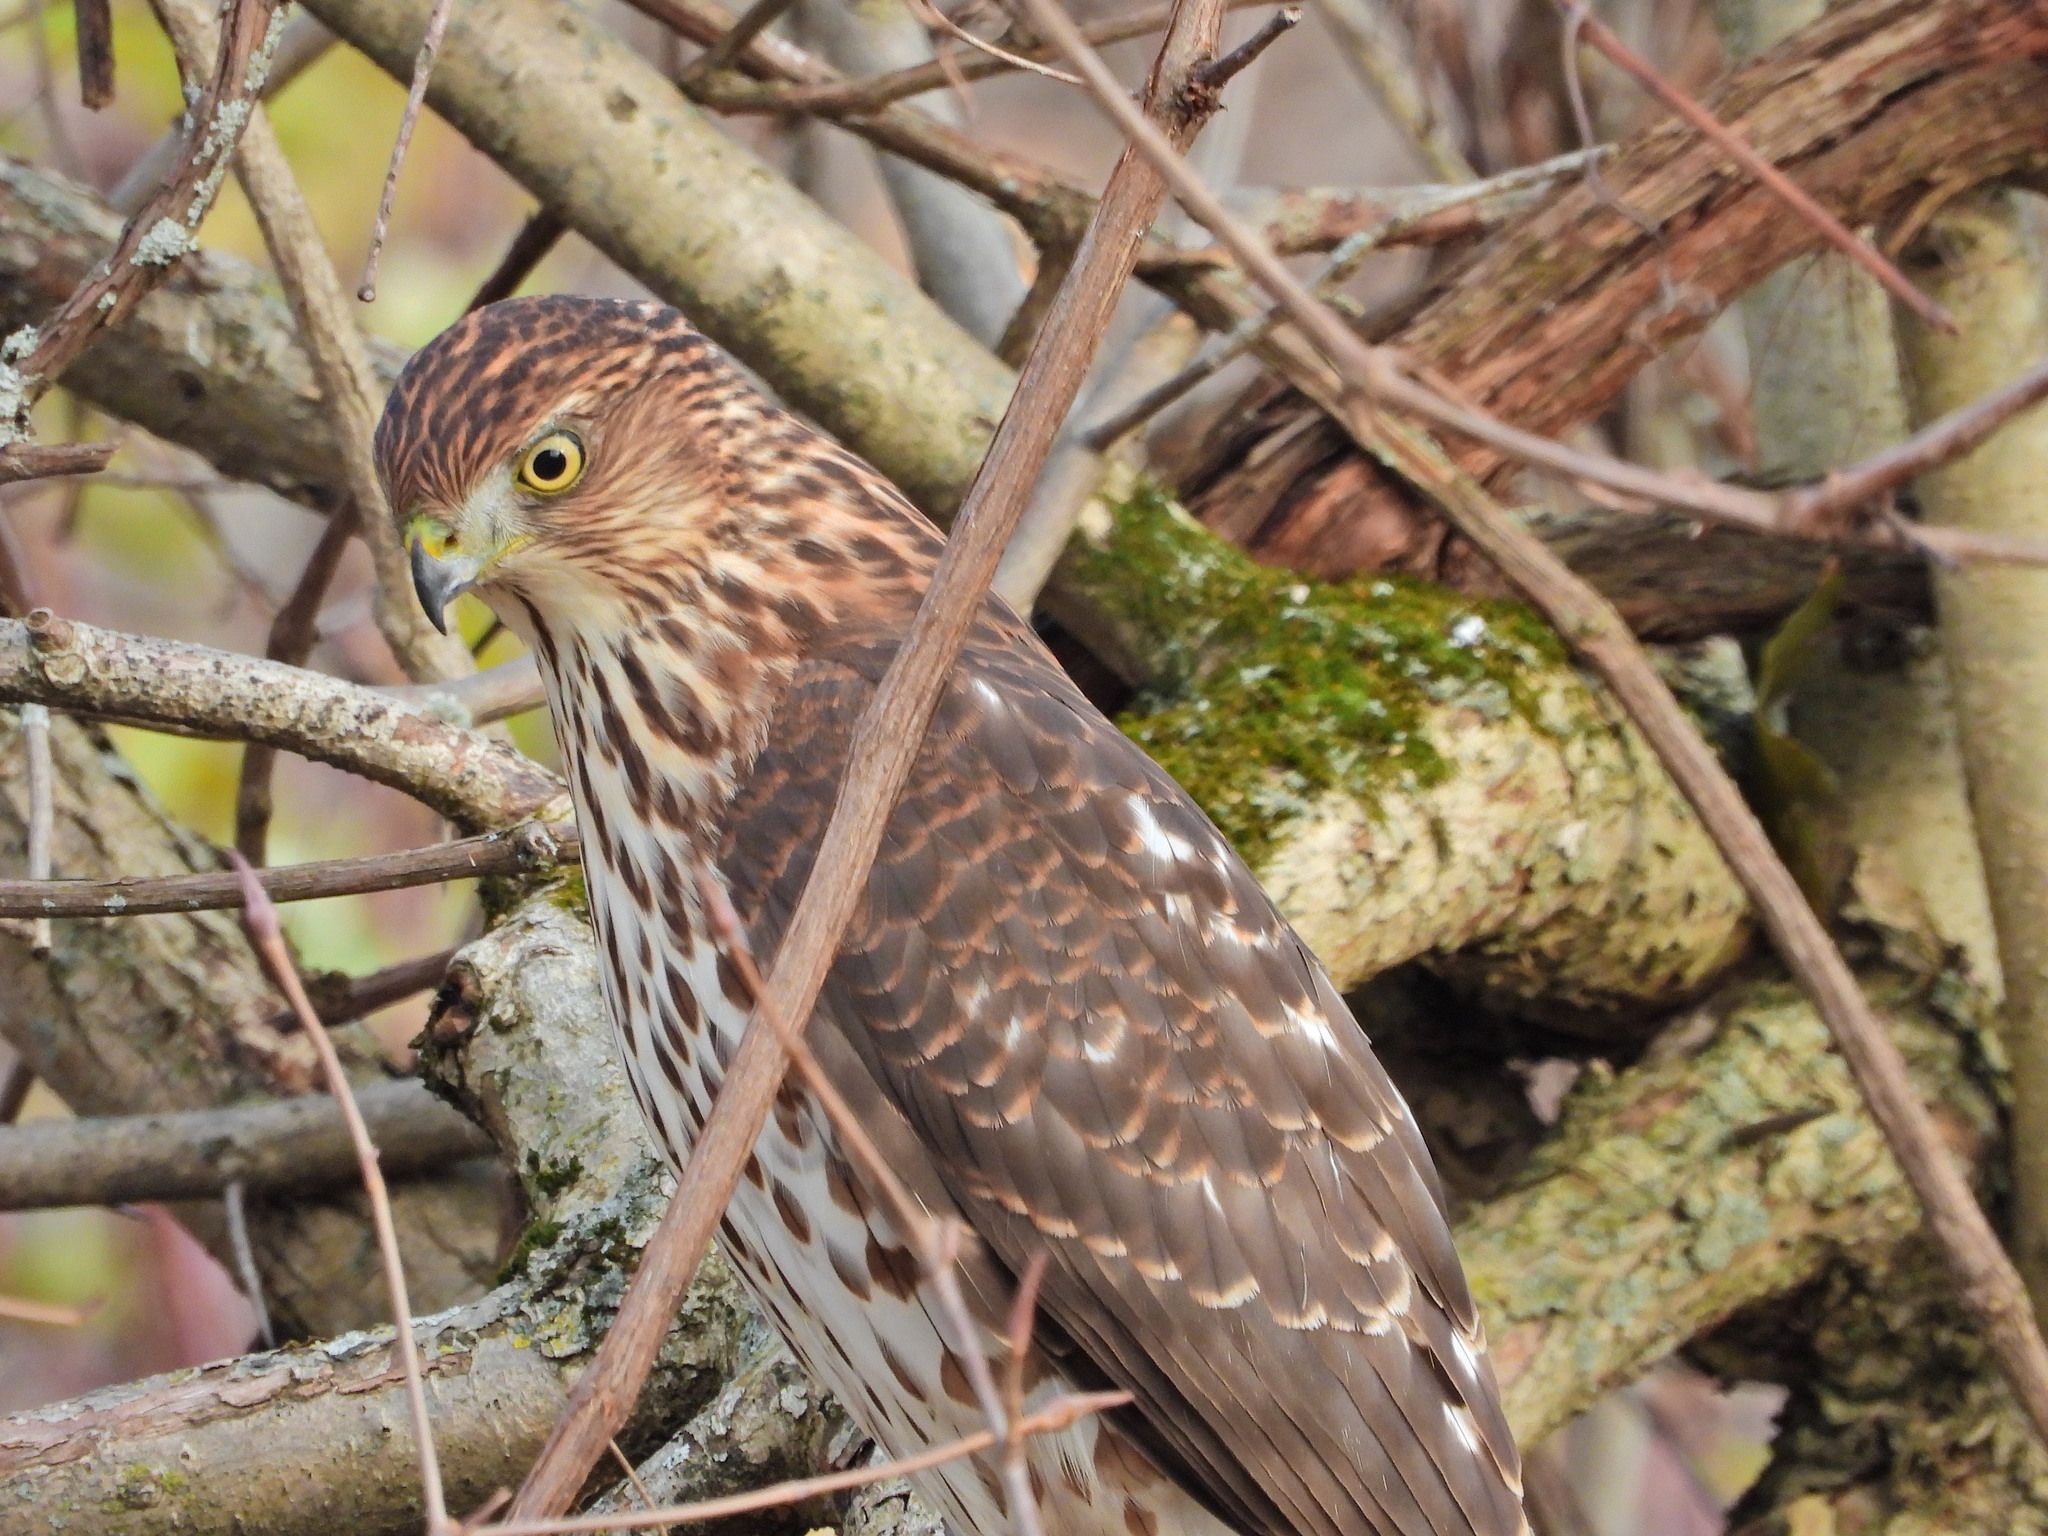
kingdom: Animalia
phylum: Chordata
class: Aves
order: Accipitriformes
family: Accipitridae
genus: Accipiter
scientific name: Accipiter cooperii
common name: Cooper's hawk
